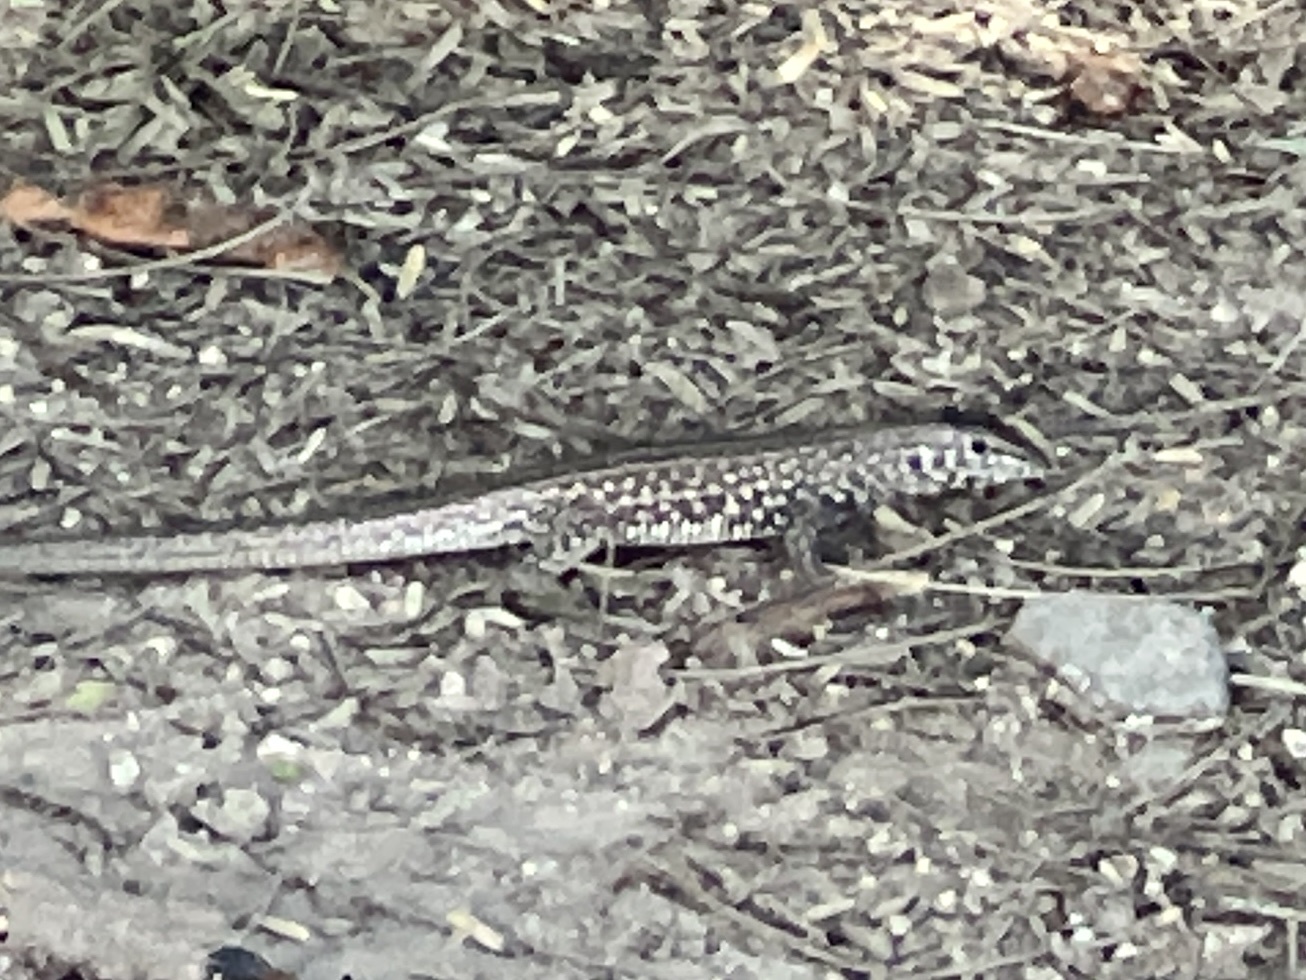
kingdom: Animalia
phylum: Chordata
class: Squamata
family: Teiidae
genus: Aspidoscelis
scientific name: Aspidoscelis tigris
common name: Tiger whiptail
